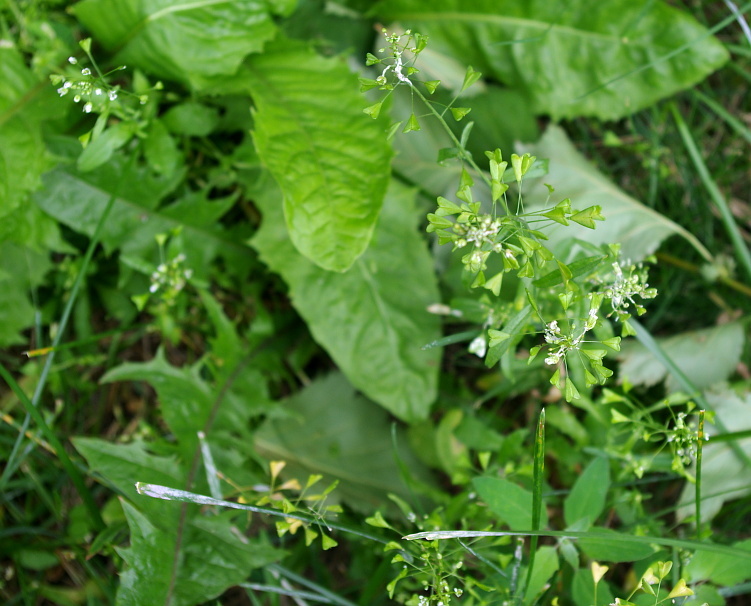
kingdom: Plantae
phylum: Tracheophyta
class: Magnoliopsida
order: Brassicales
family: Brassicaceae
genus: Capsella
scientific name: Capsella bursa-pastoris
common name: Shepherd's purse
